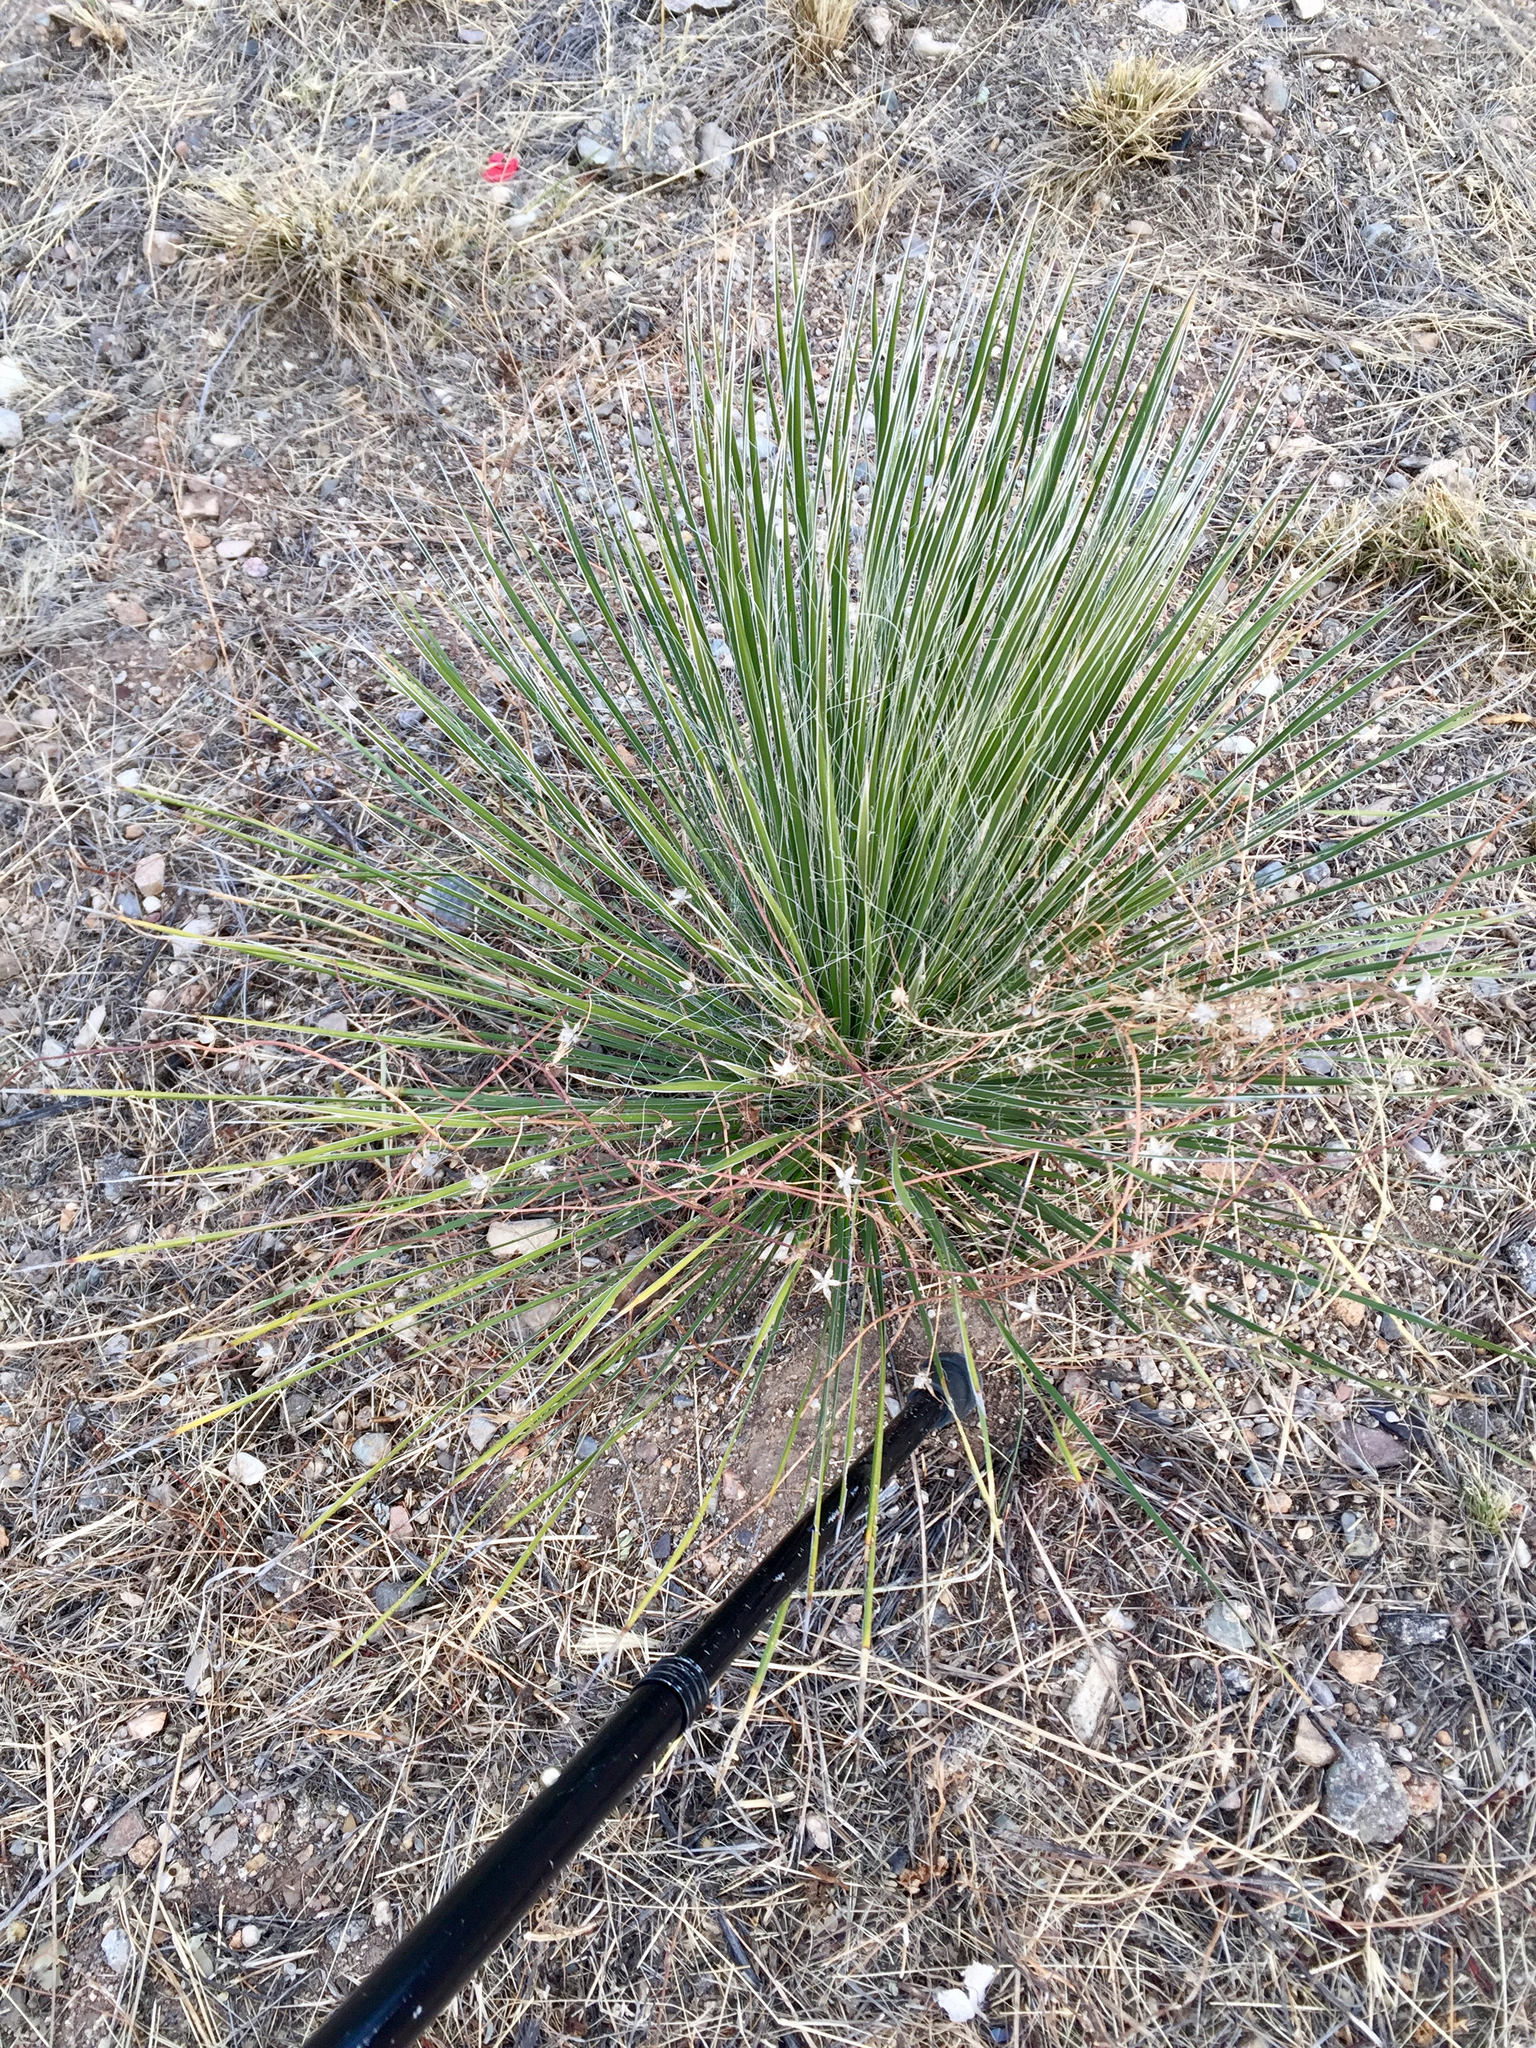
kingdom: Plantae
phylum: Tracheophyta
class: Liliopsida
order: Asparagales
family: Asparagaceae
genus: Yucca
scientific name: Yucca elata
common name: Palmella
